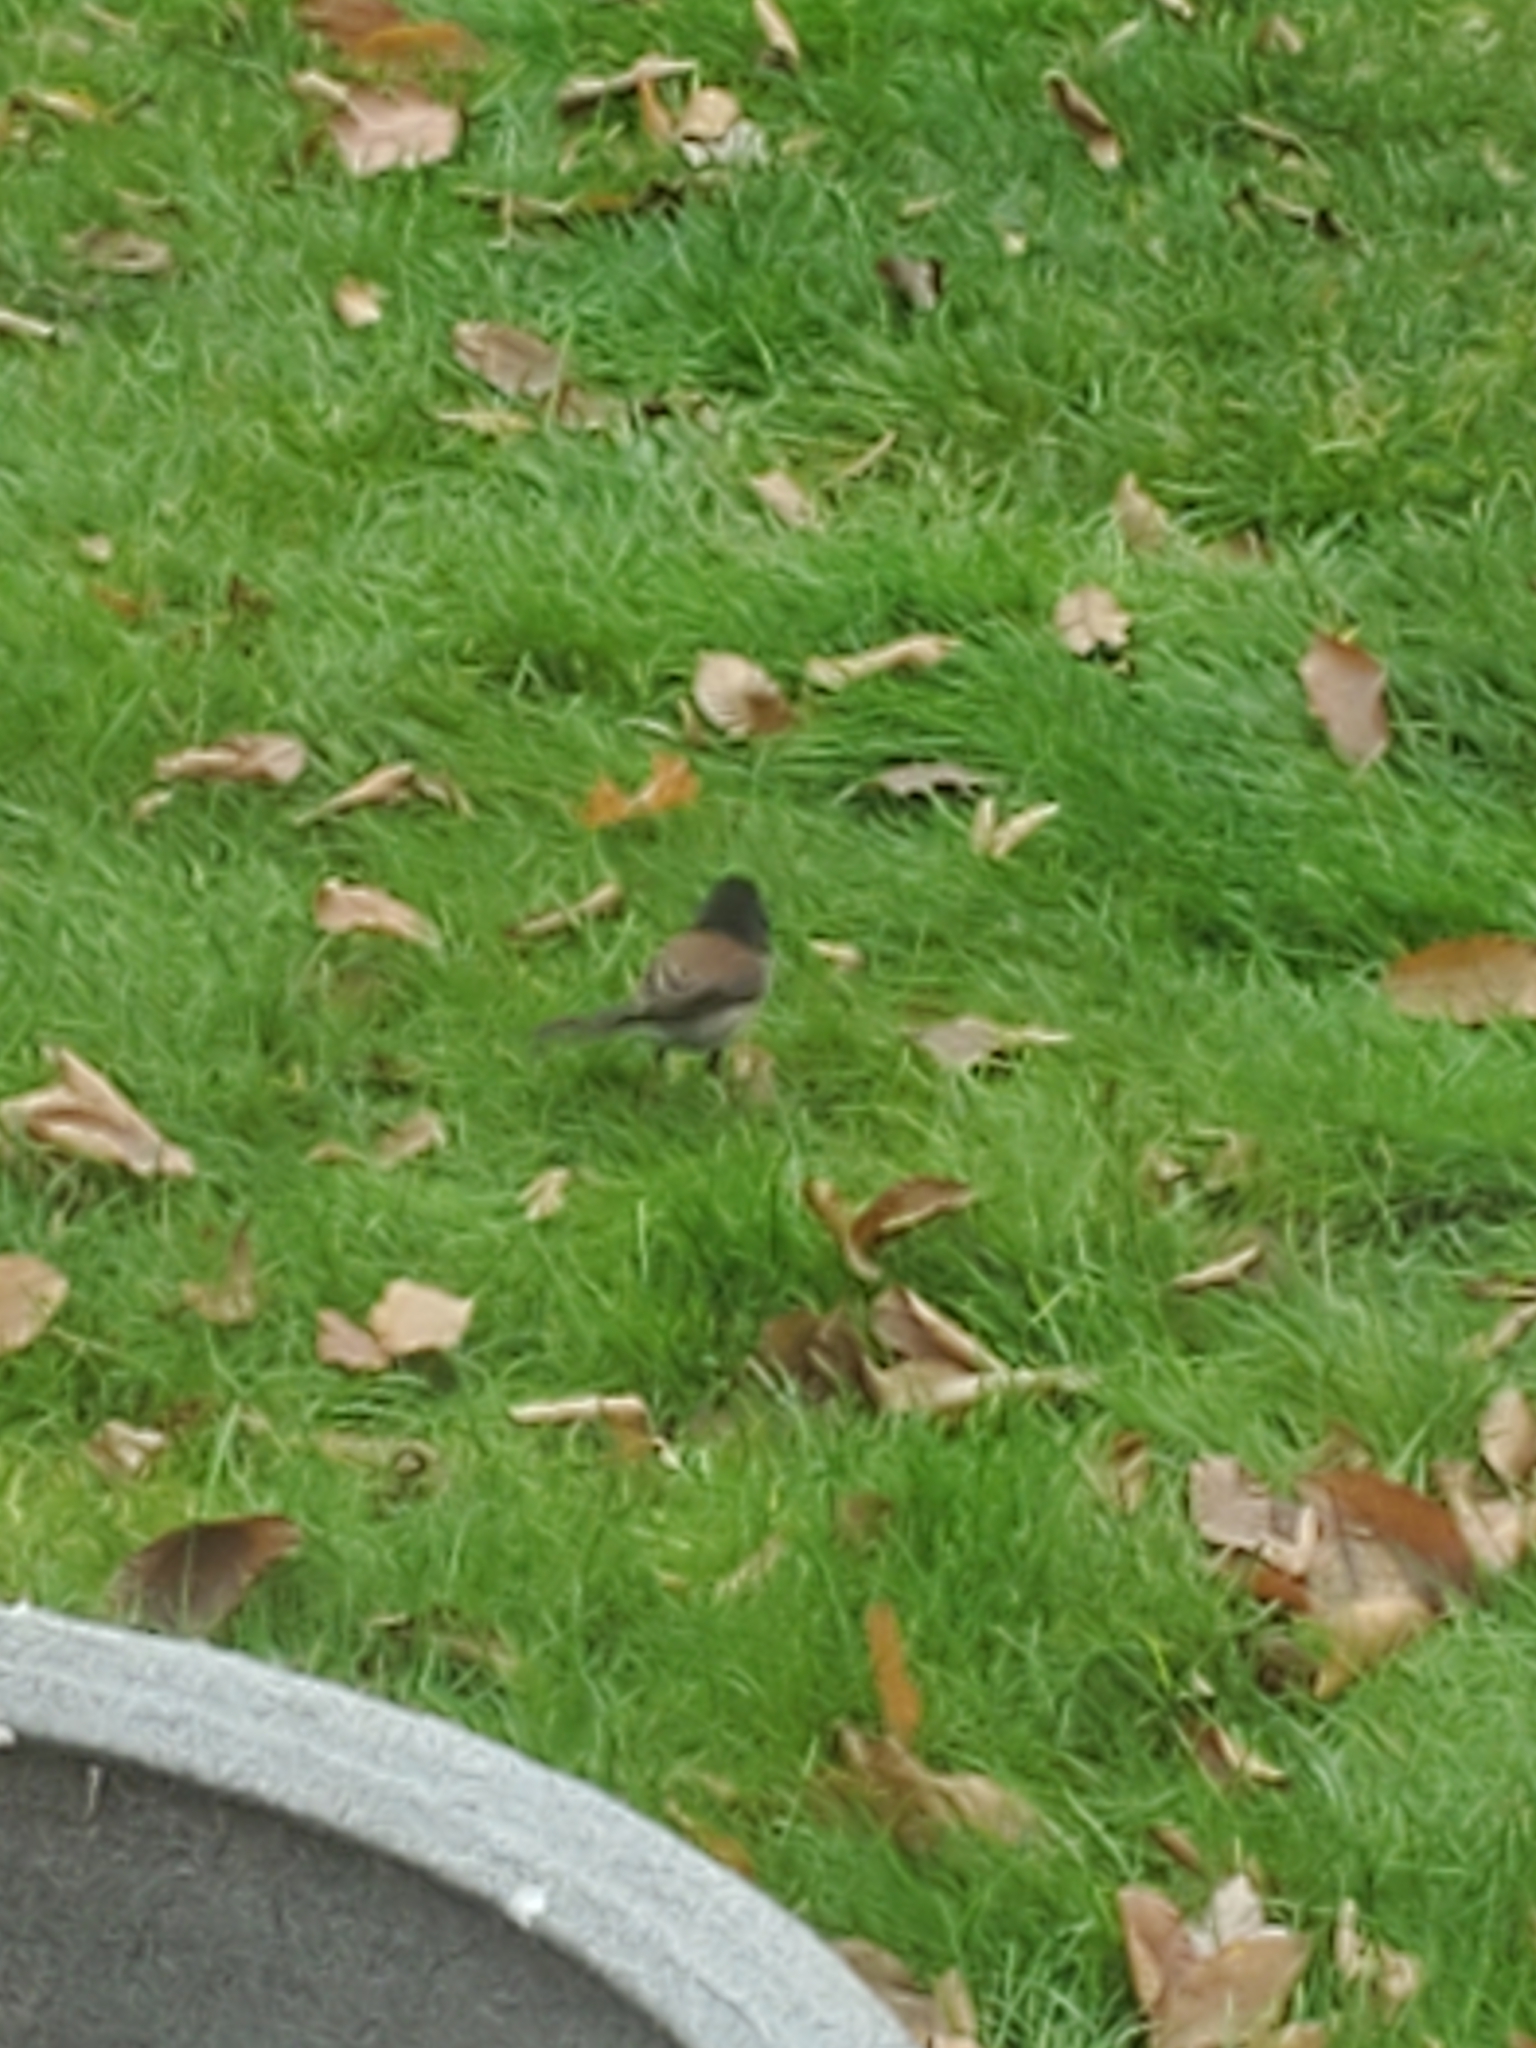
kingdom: Animalia
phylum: Chordata
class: Aves
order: Passeriformes
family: Passerellidae
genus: Junco
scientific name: Junco hyemalis
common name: Dark-eyed junco
